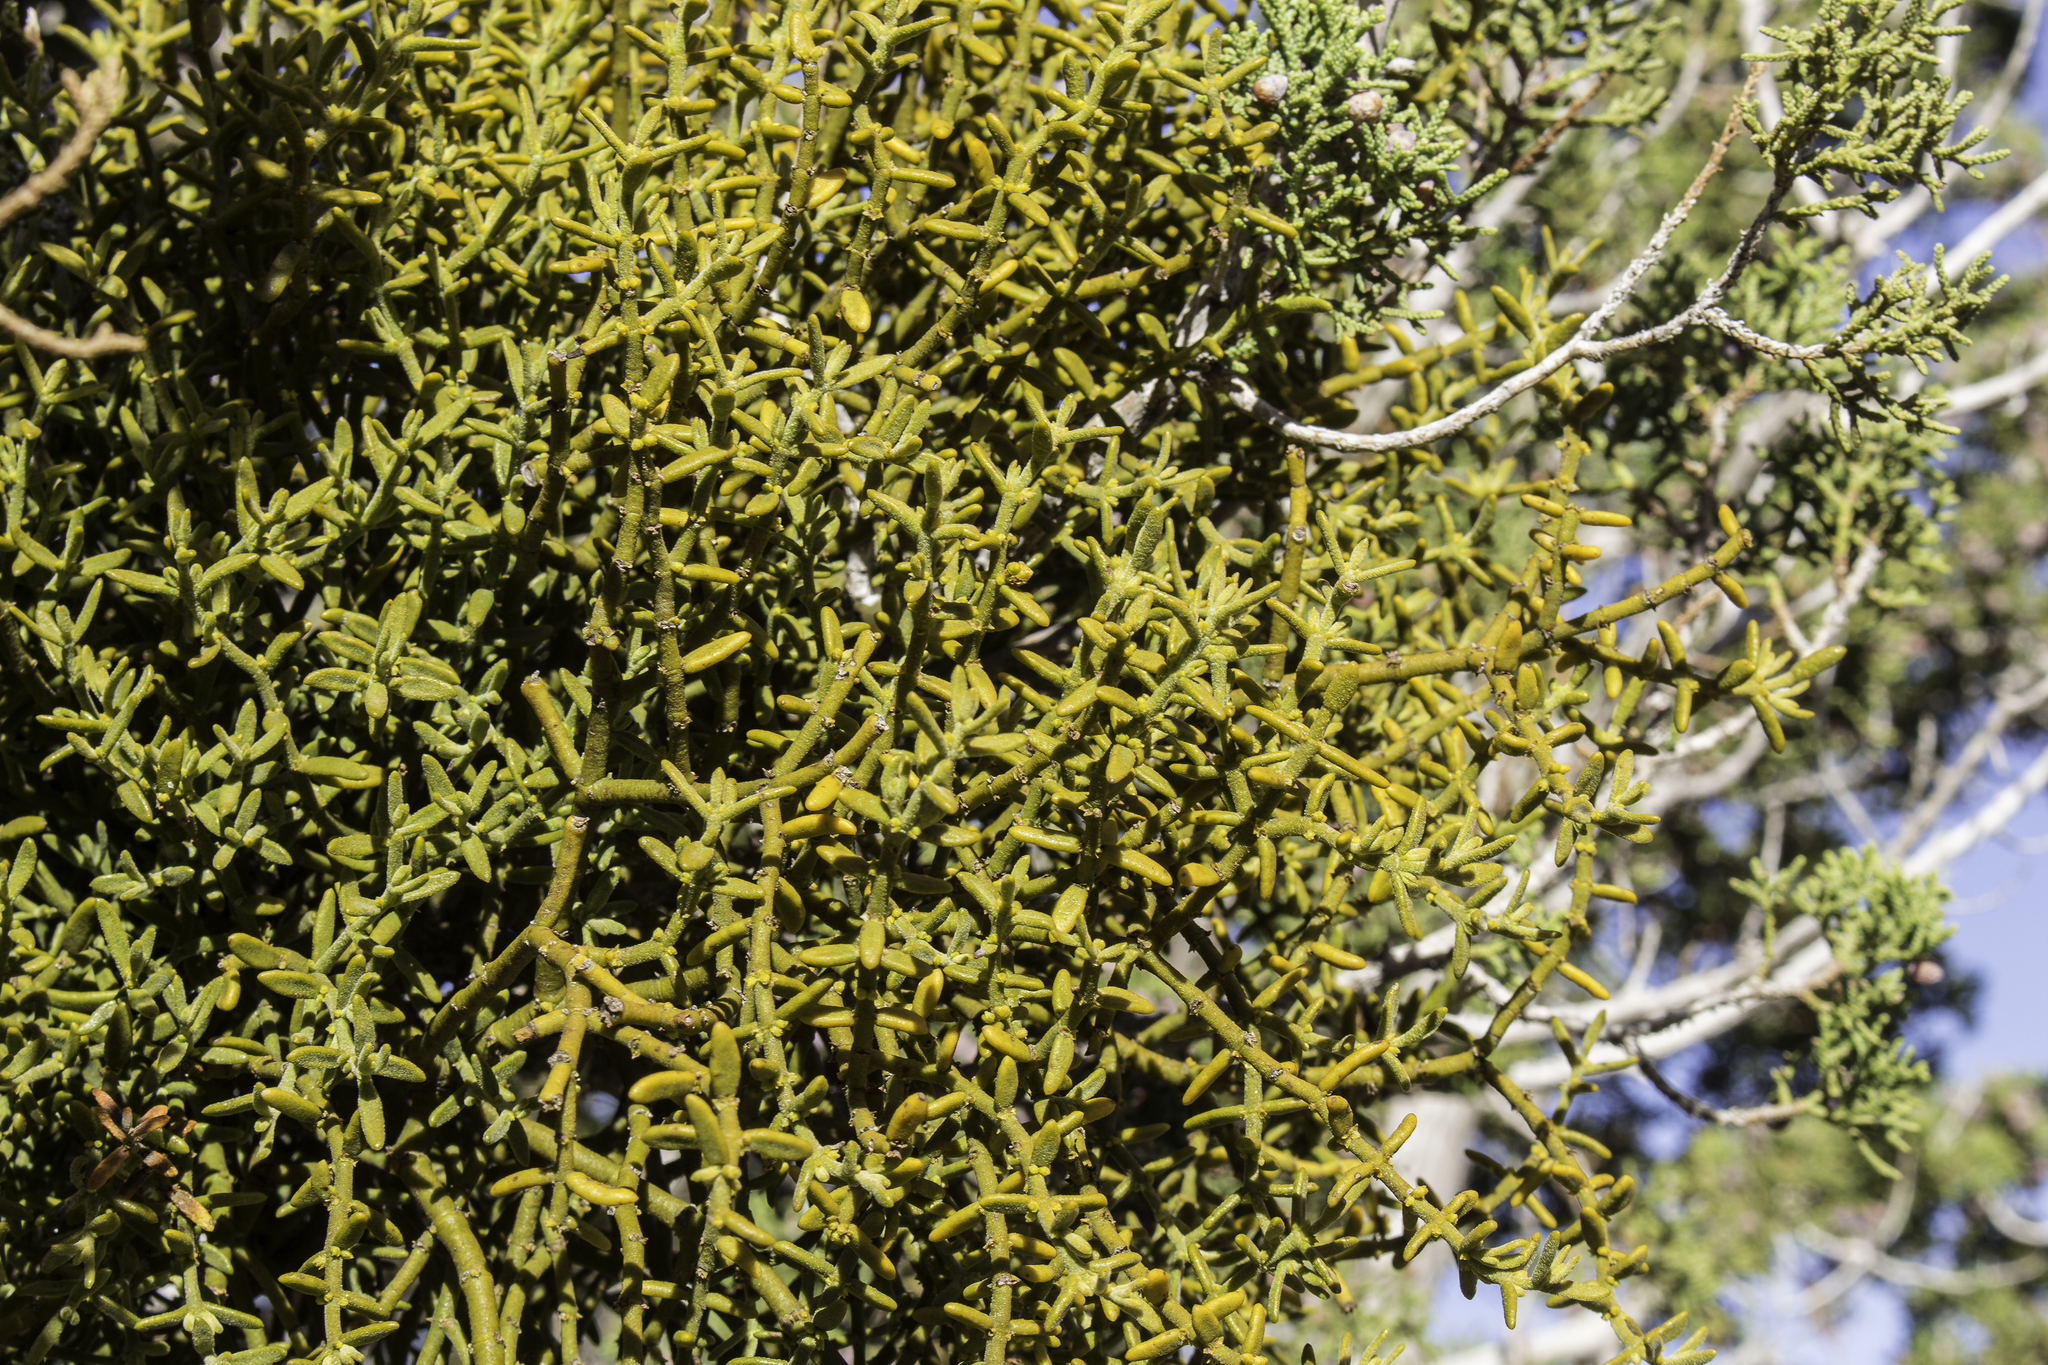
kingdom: Plantae
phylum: Tracheophyta
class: Magnoliopsida
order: Santalales
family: Viscaceae
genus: Phoradendron
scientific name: Phoradendron capitellatum
